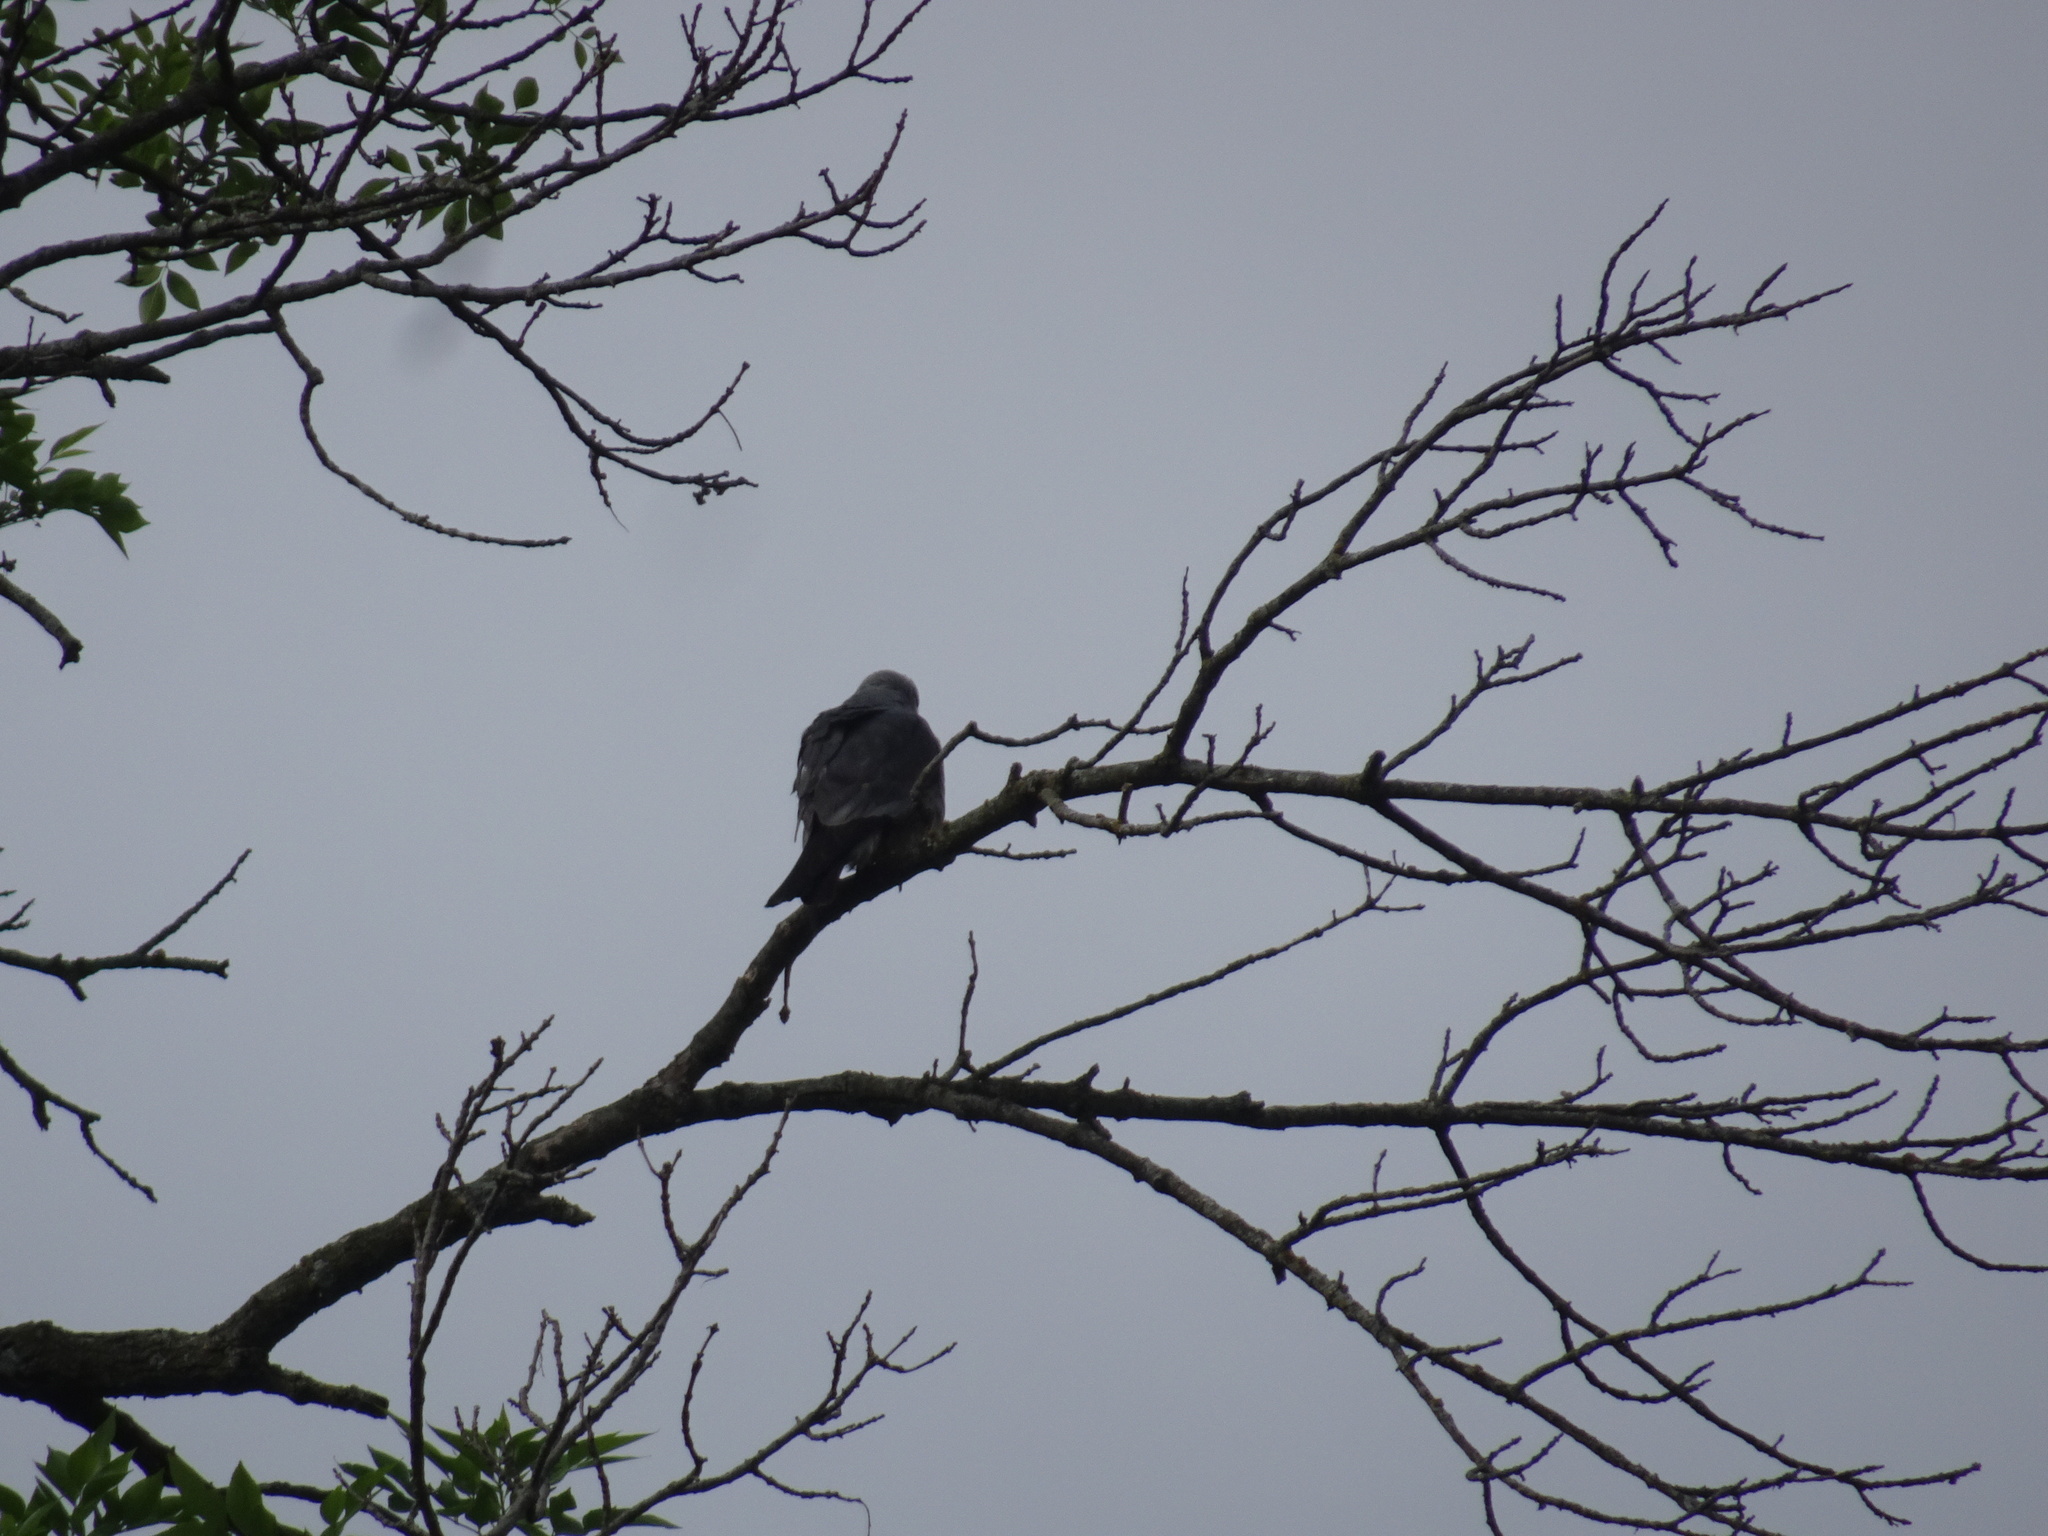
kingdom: Animalia
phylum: Chordata
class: Aves
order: Accipitriformes
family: Accipitridae
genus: Ictinia
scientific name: Ictinia mississippiensis
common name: Mississippi kite
